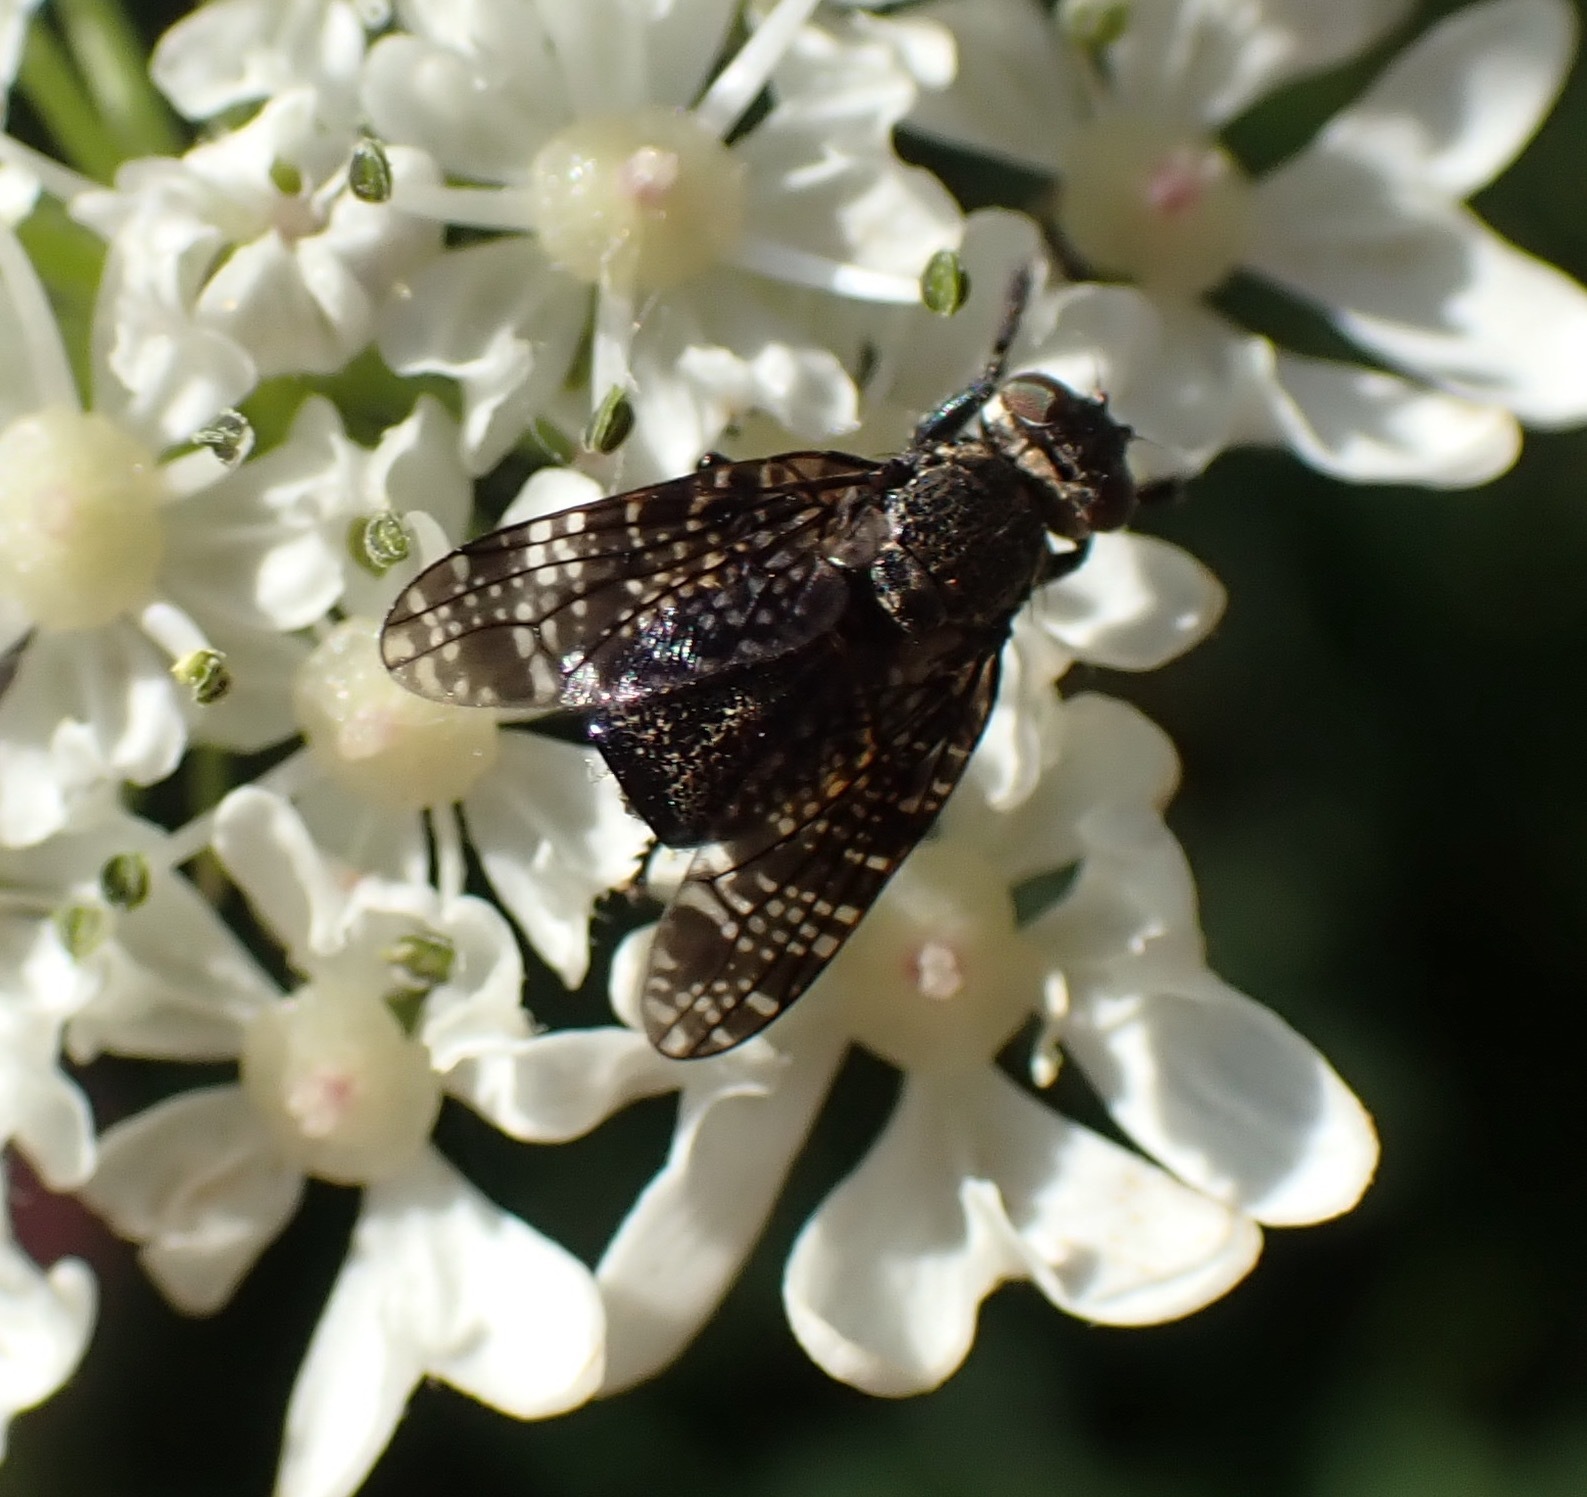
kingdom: Animalia
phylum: Arthropoda
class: Insecta
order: Diptera
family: Platystomatidae
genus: Platystoma
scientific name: Platystoma seminationis
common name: Fly
